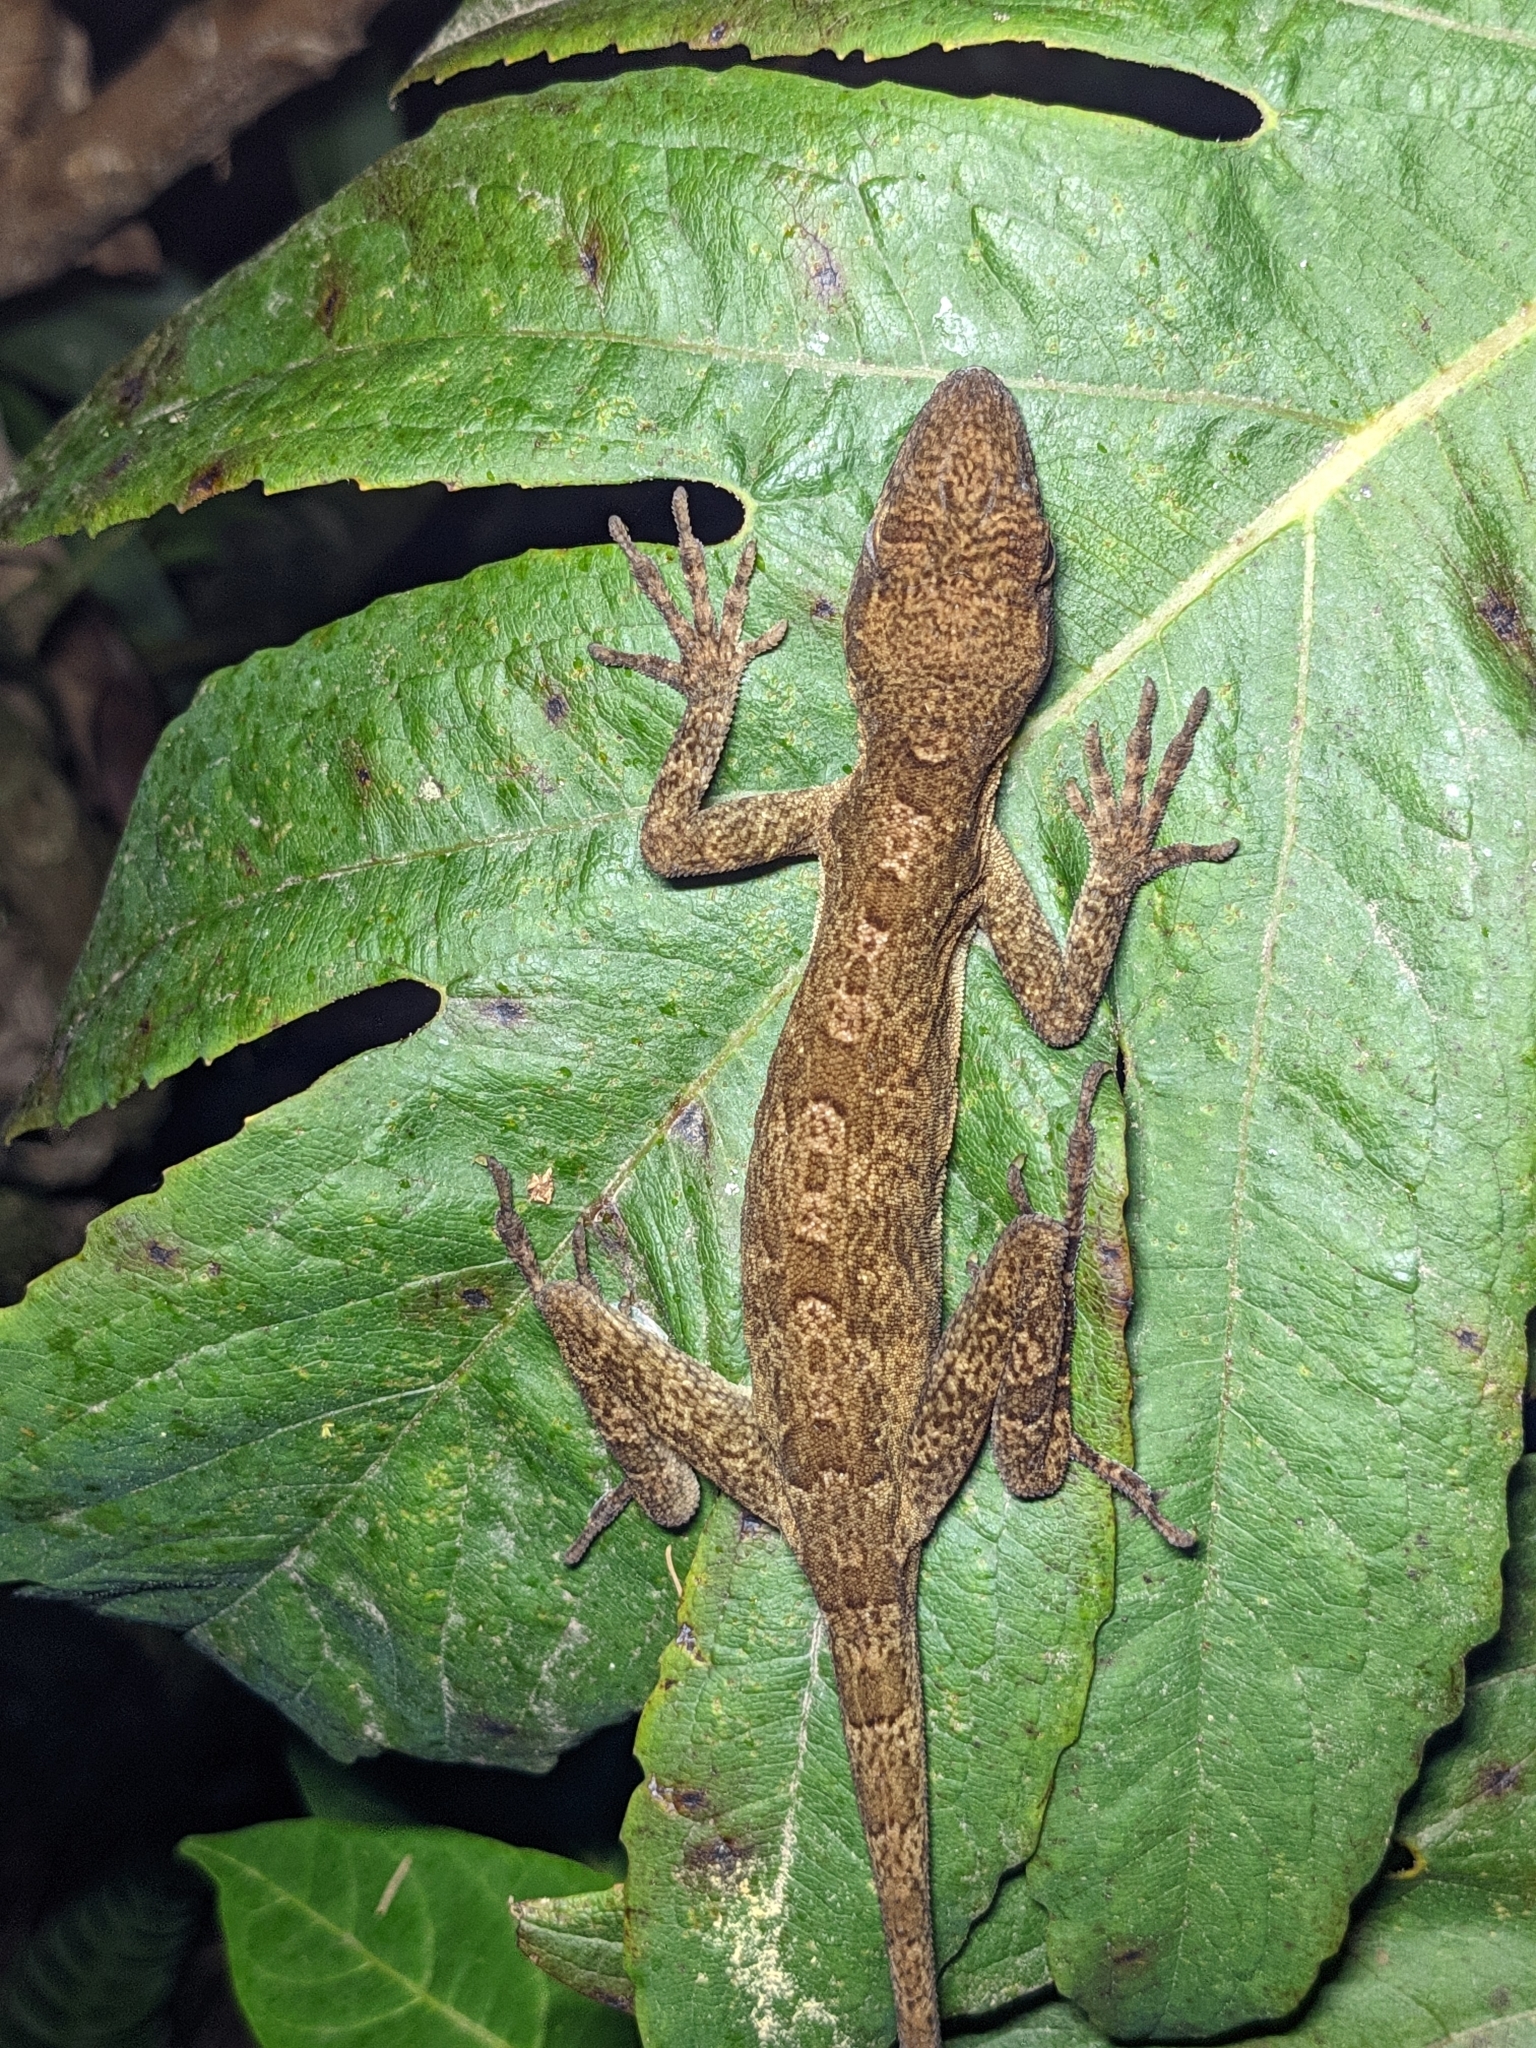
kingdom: Animalia
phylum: Chordata
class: Squamata
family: Dactyloidae
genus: Anolis
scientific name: Anolis woodi
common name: Wood's anole
